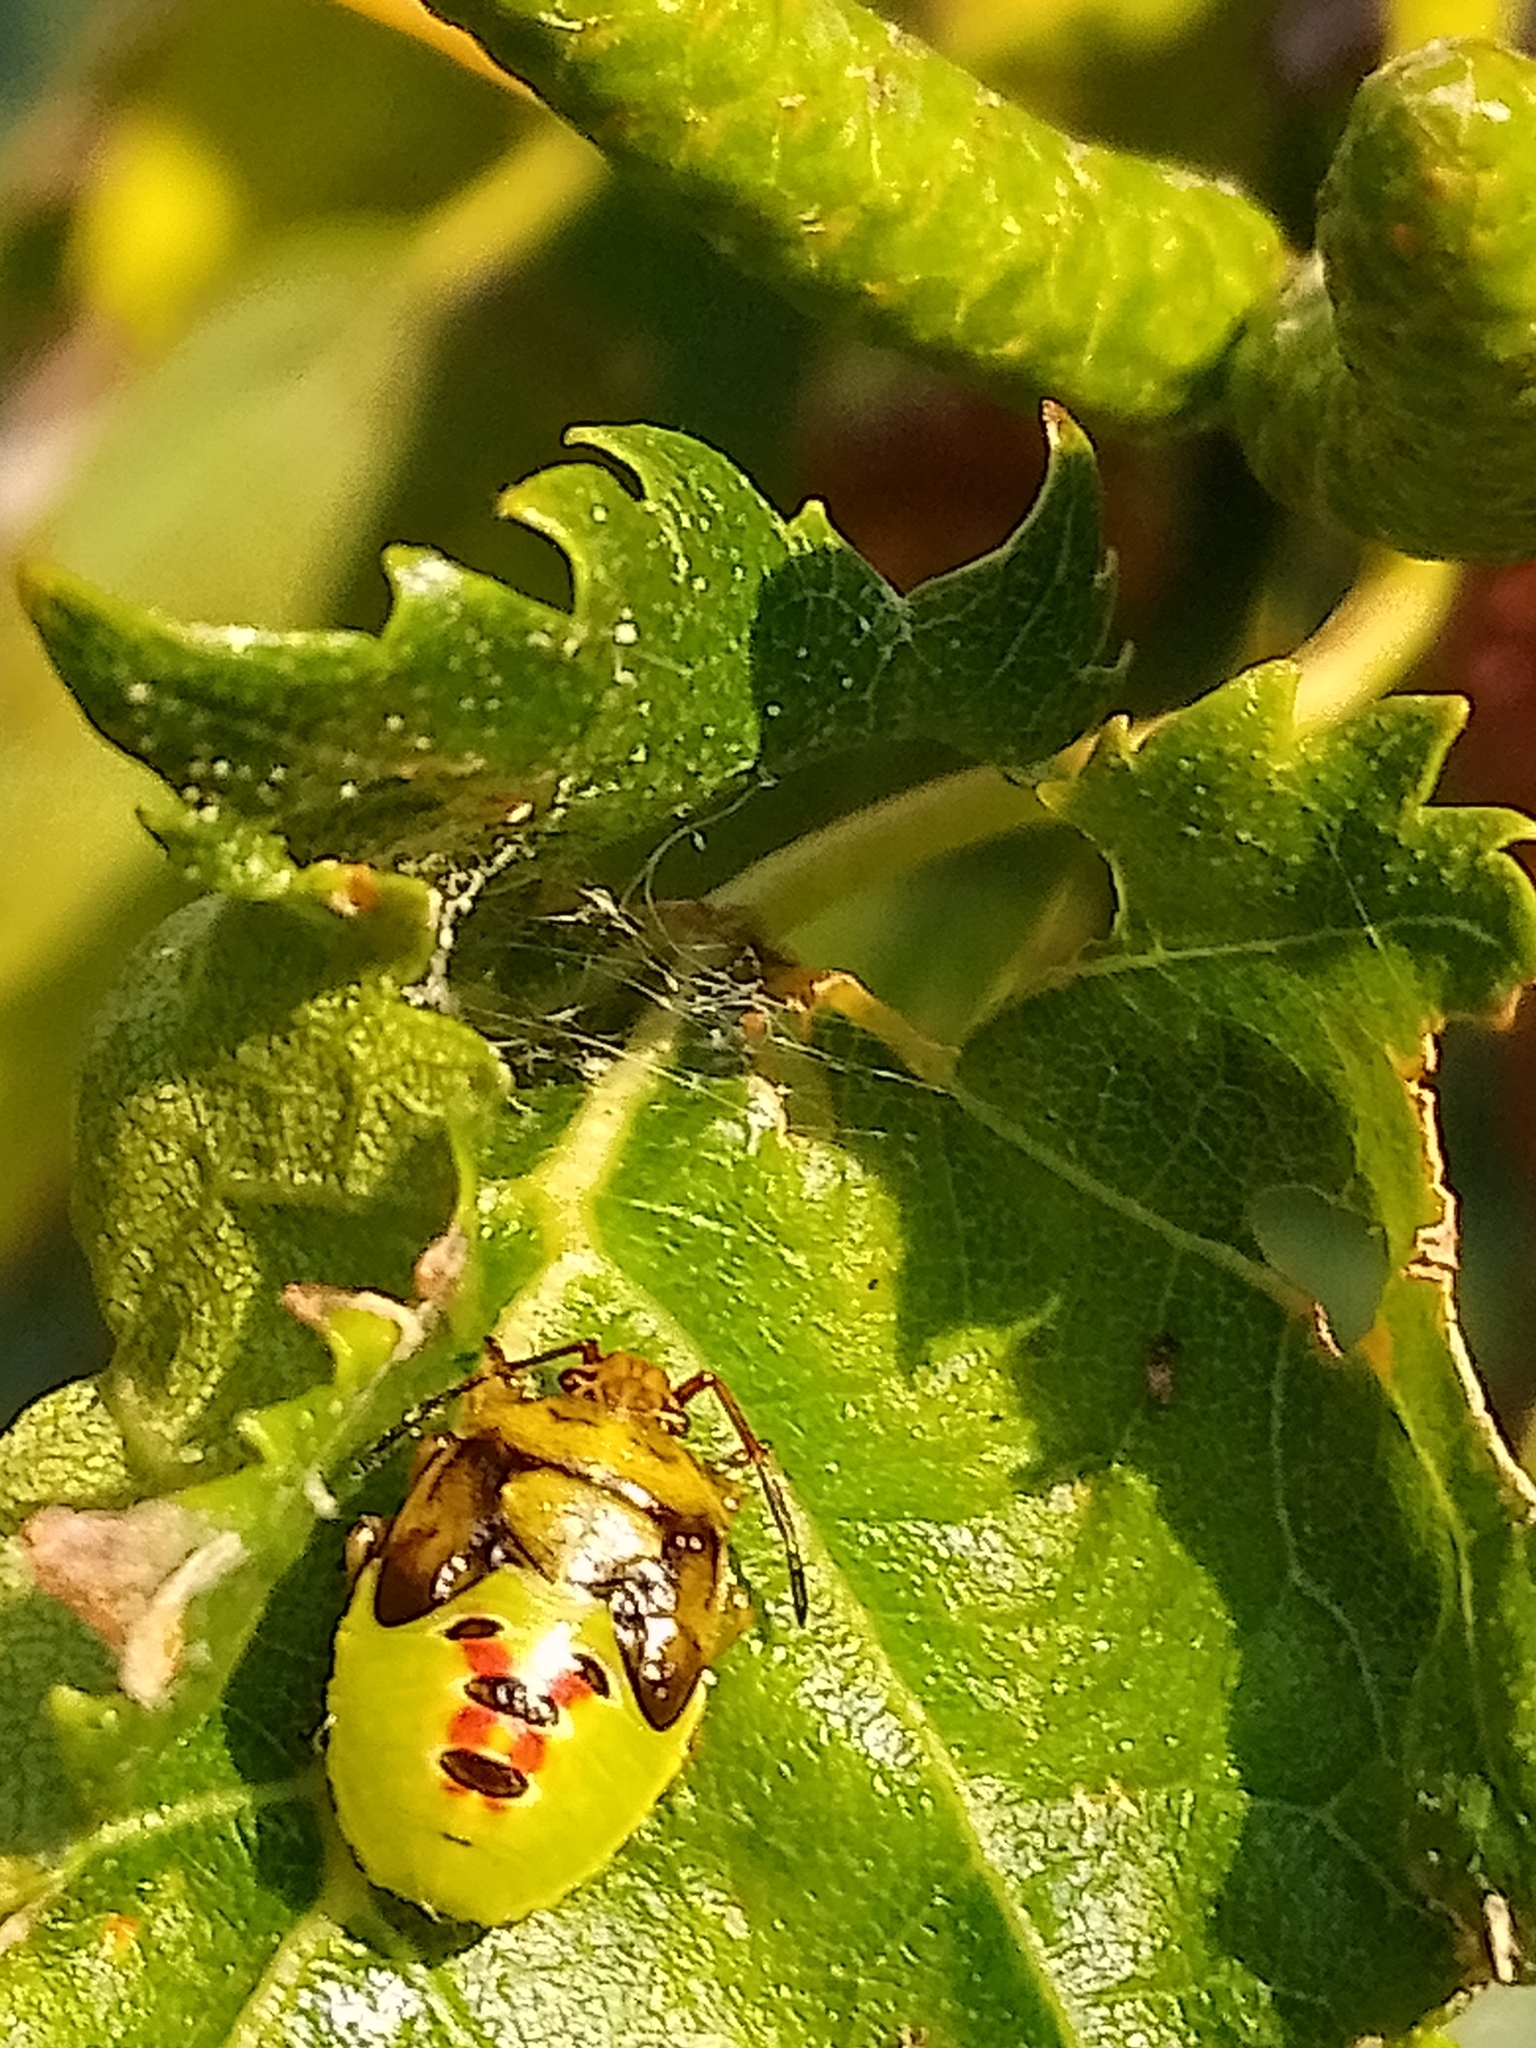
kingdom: Animalia
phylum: Arthropoda
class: Insecta
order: Hemiptera
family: Acanthosomatidae
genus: Elasmostethus
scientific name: Elasmostethus interstinctus
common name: Birch shieldbug
